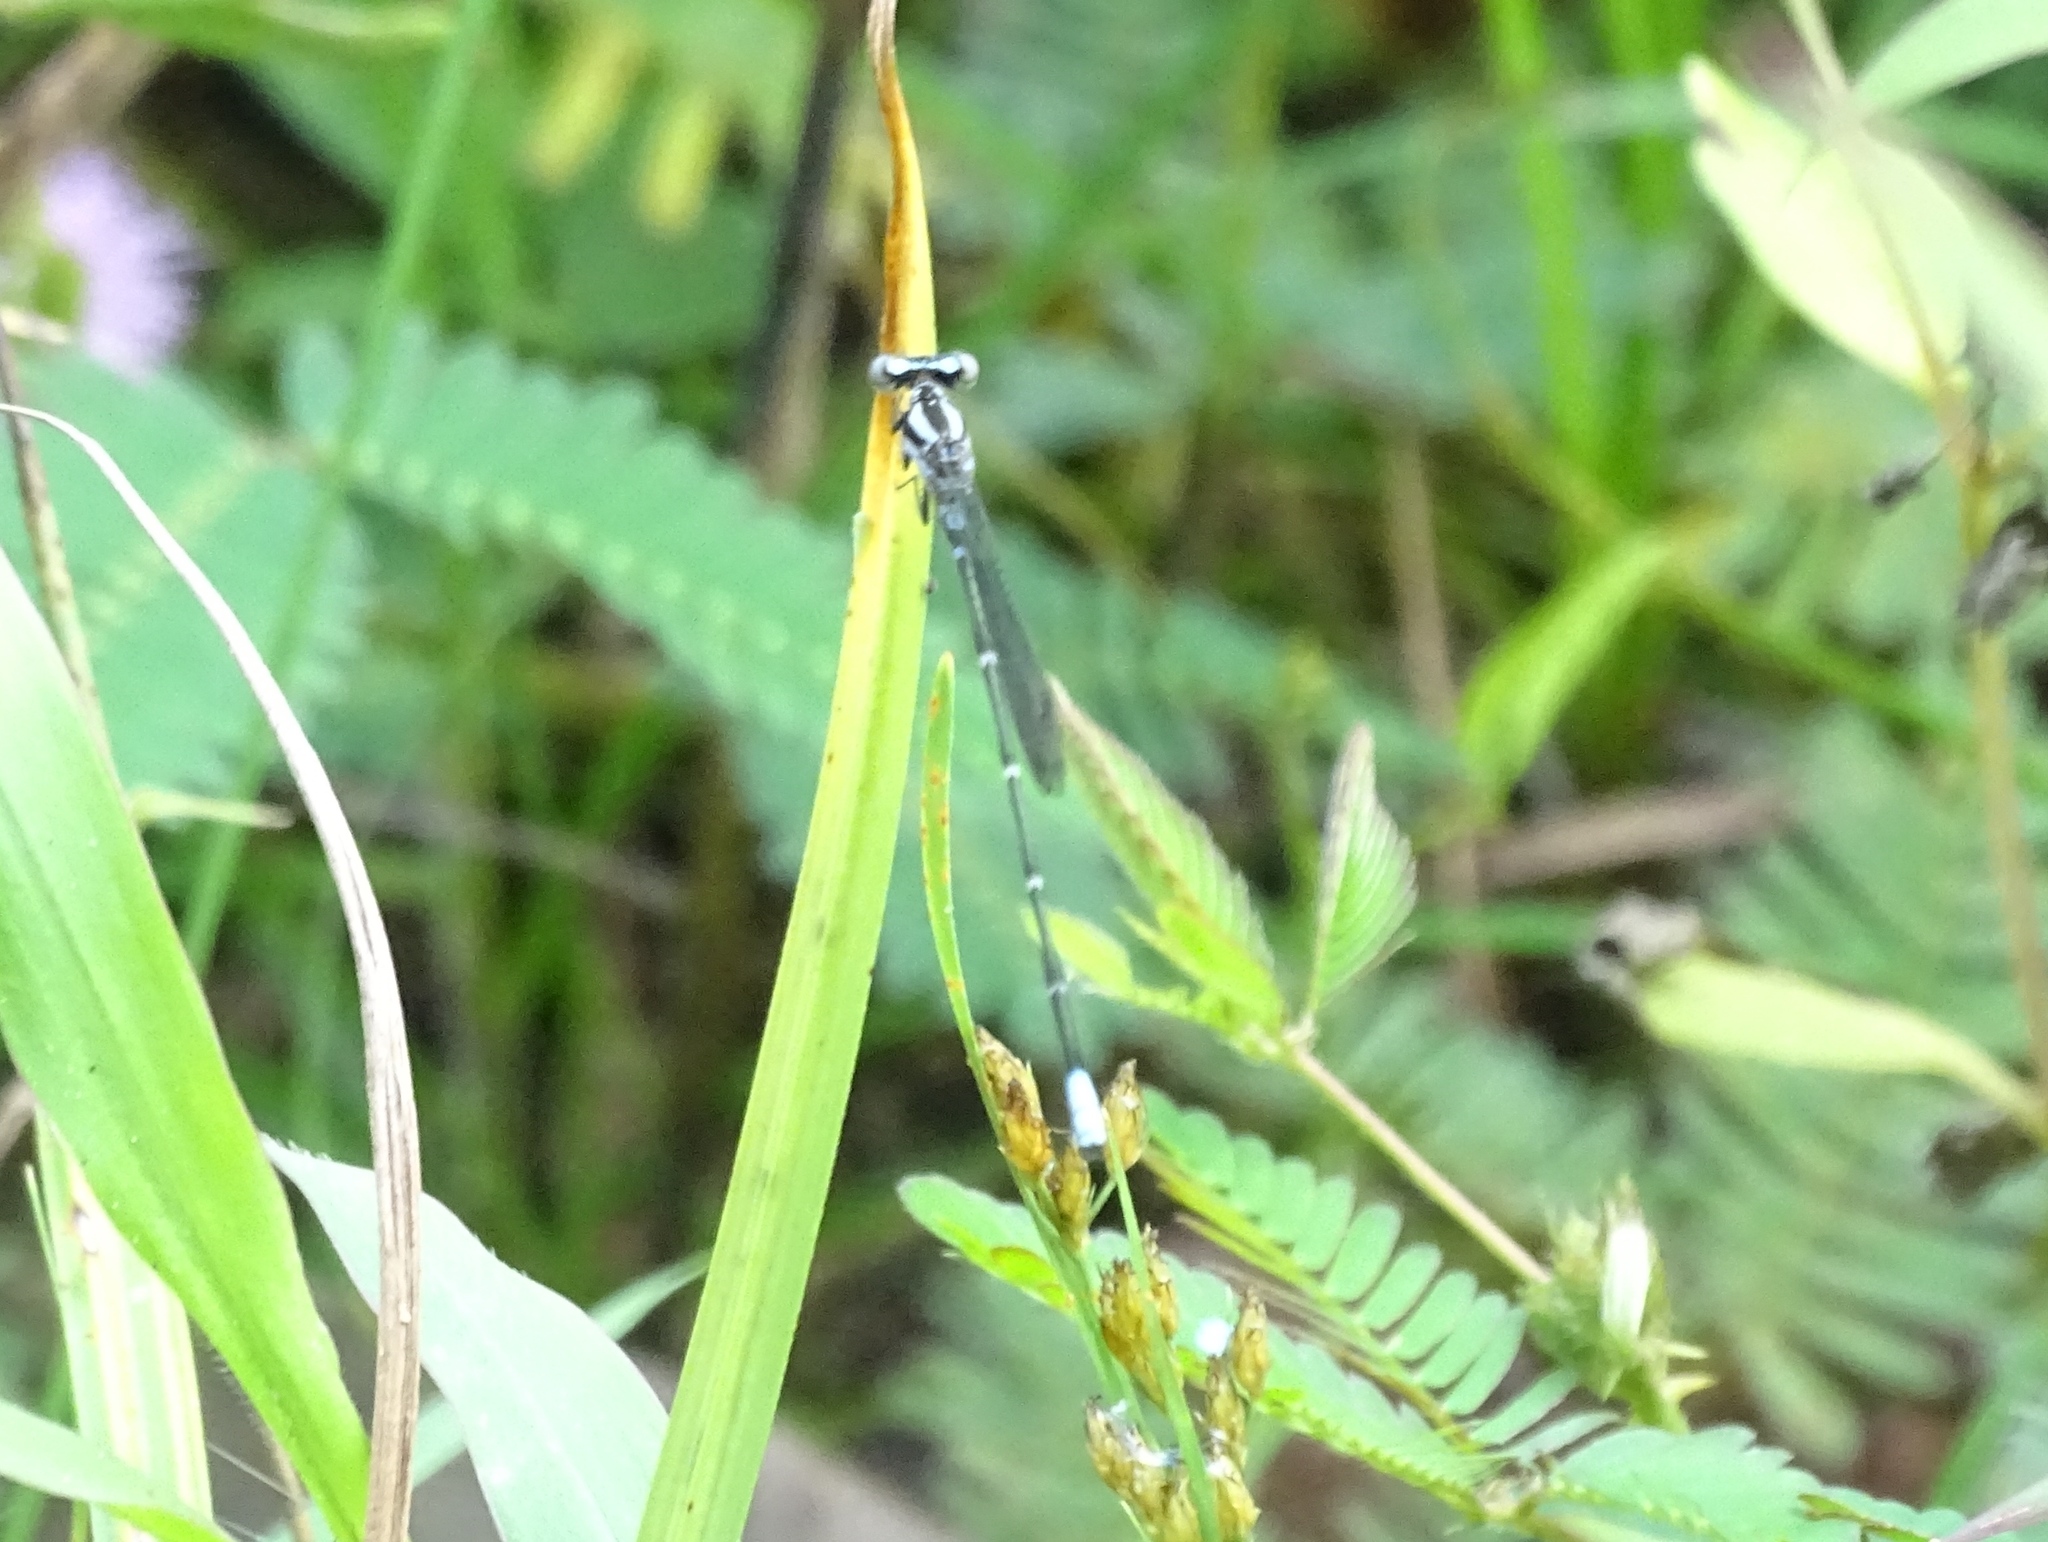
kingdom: Animalia
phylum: Arthropoda
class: Insecta
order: Odonata
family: Coenagrionidae
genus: Argia
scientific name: Argia pulla
